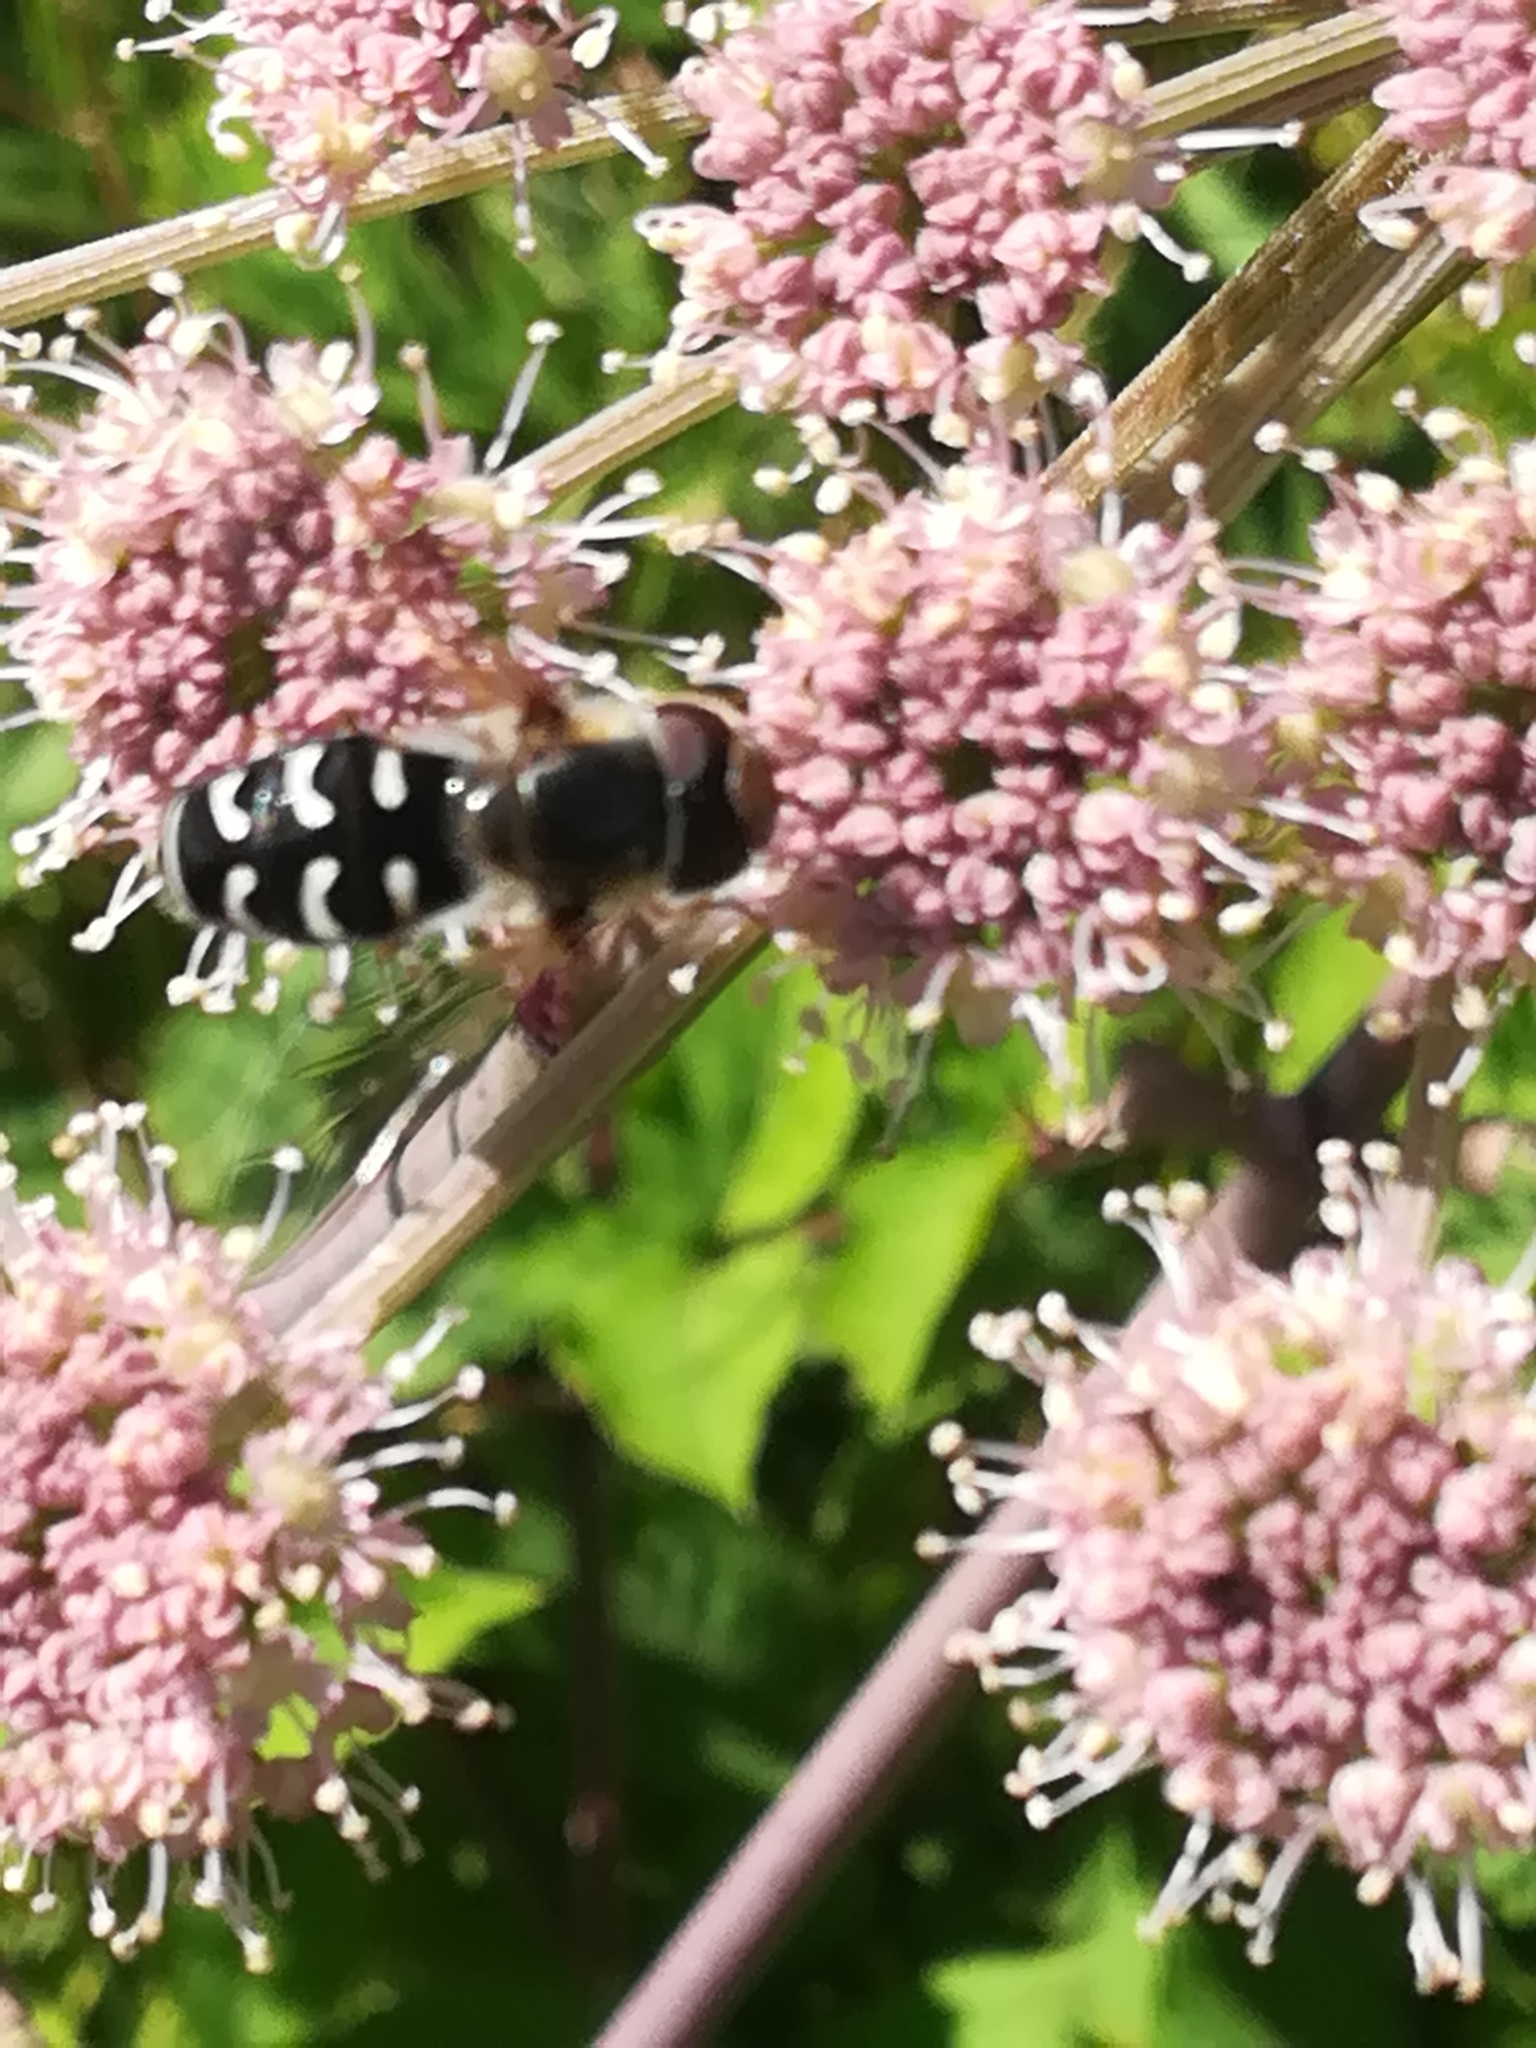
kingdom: Animalia
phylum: Arthropoda
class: Insecta
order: Diptera
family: Syrphidae
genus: Scaeva
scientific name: Scaeva pyrastri
